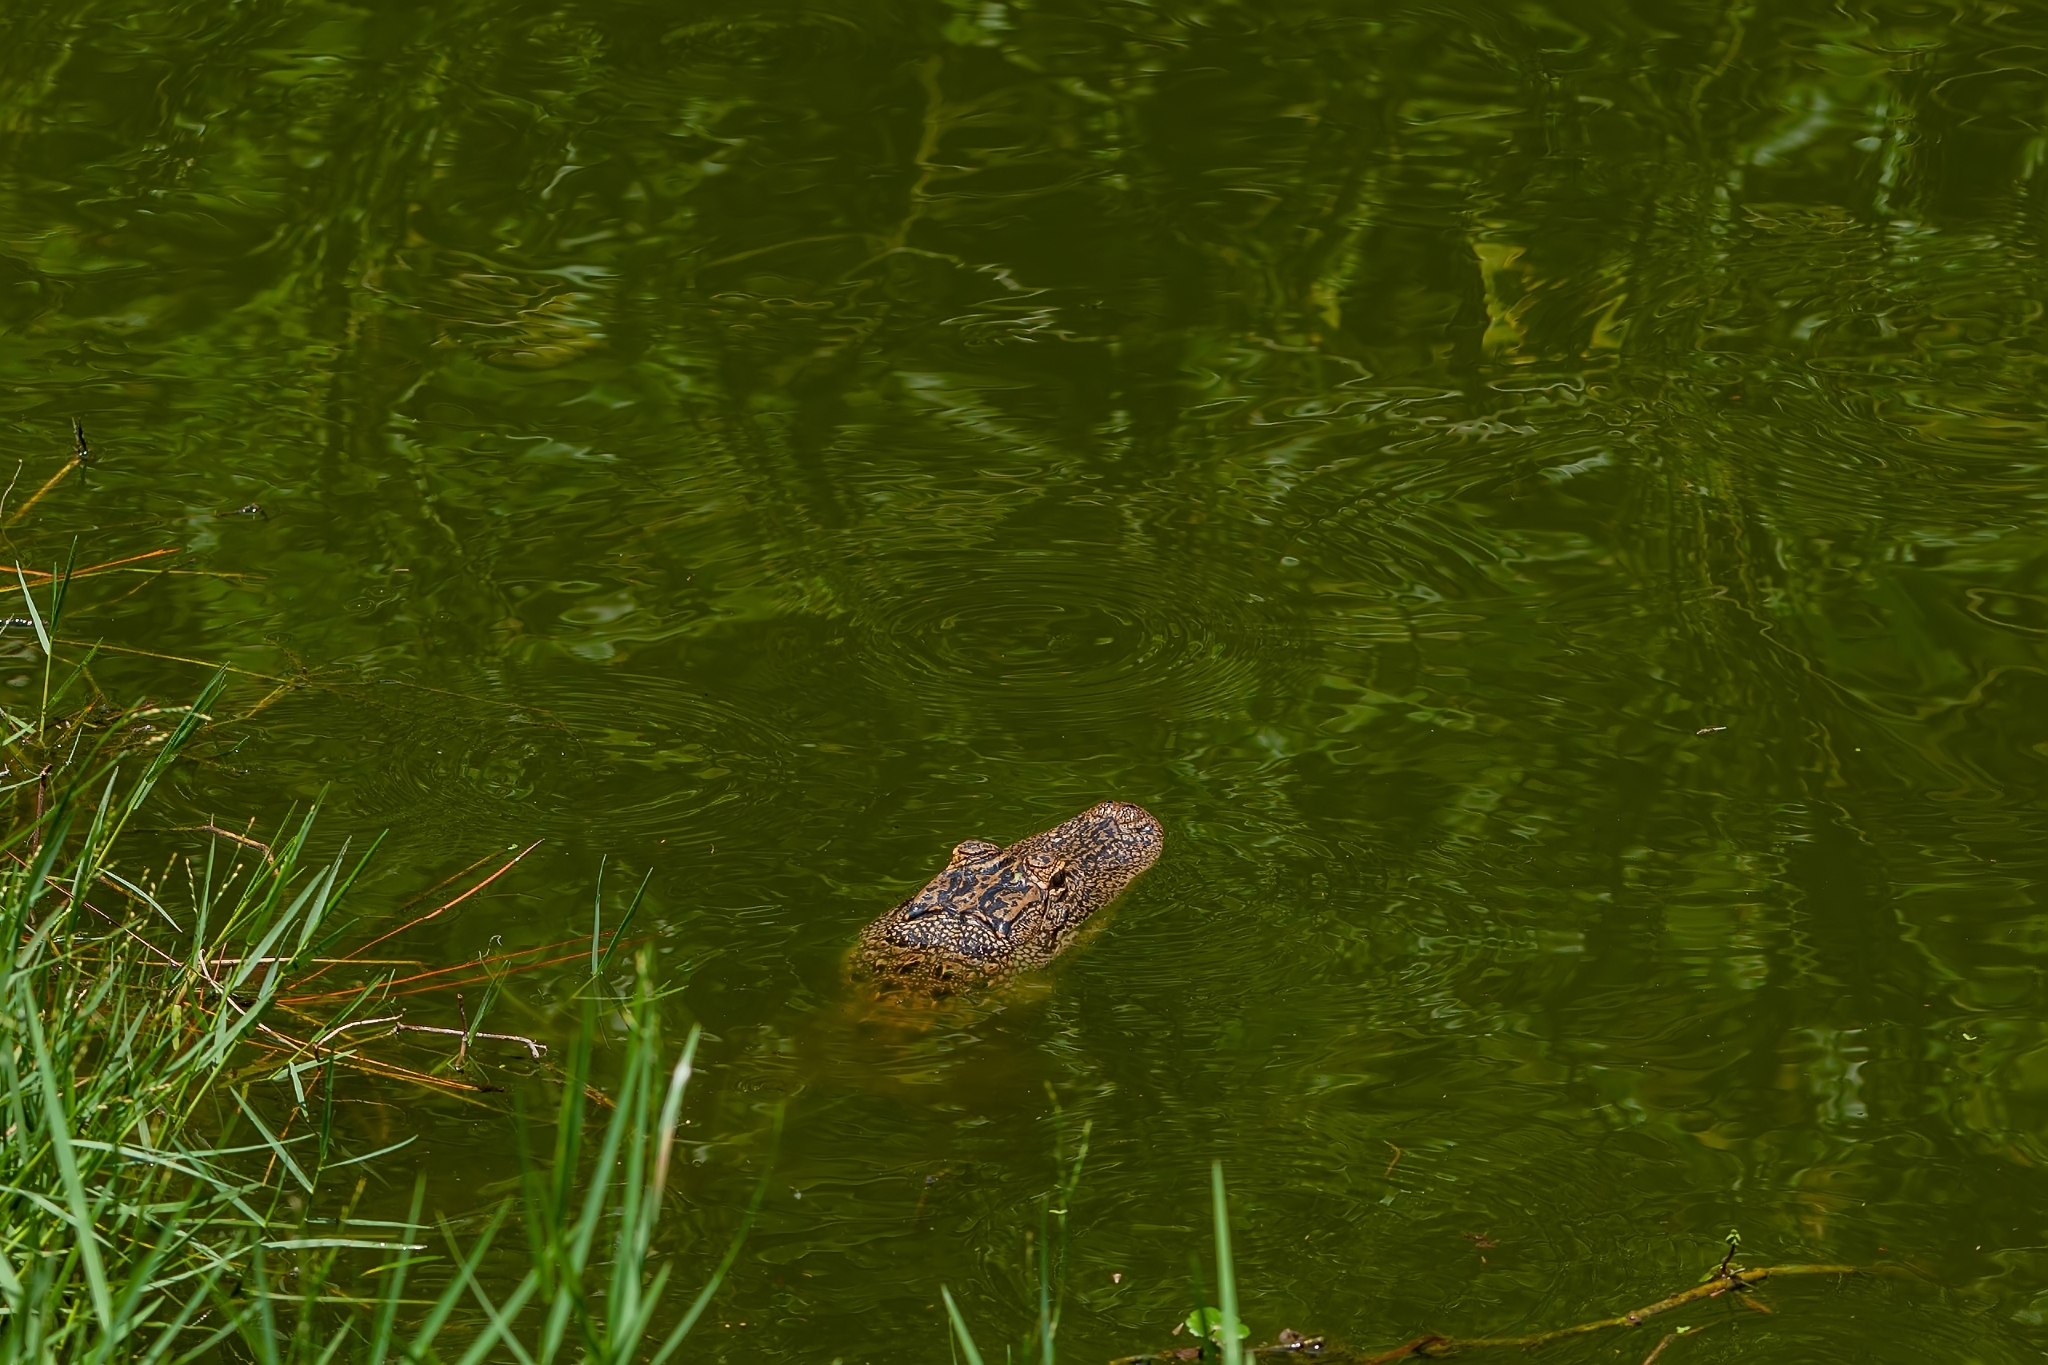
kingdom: Animalia
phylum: Chordata
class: Crocodylia
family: Alligatoridae
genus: Alligator
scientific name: Alligator mississippiensis
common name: American alligator
